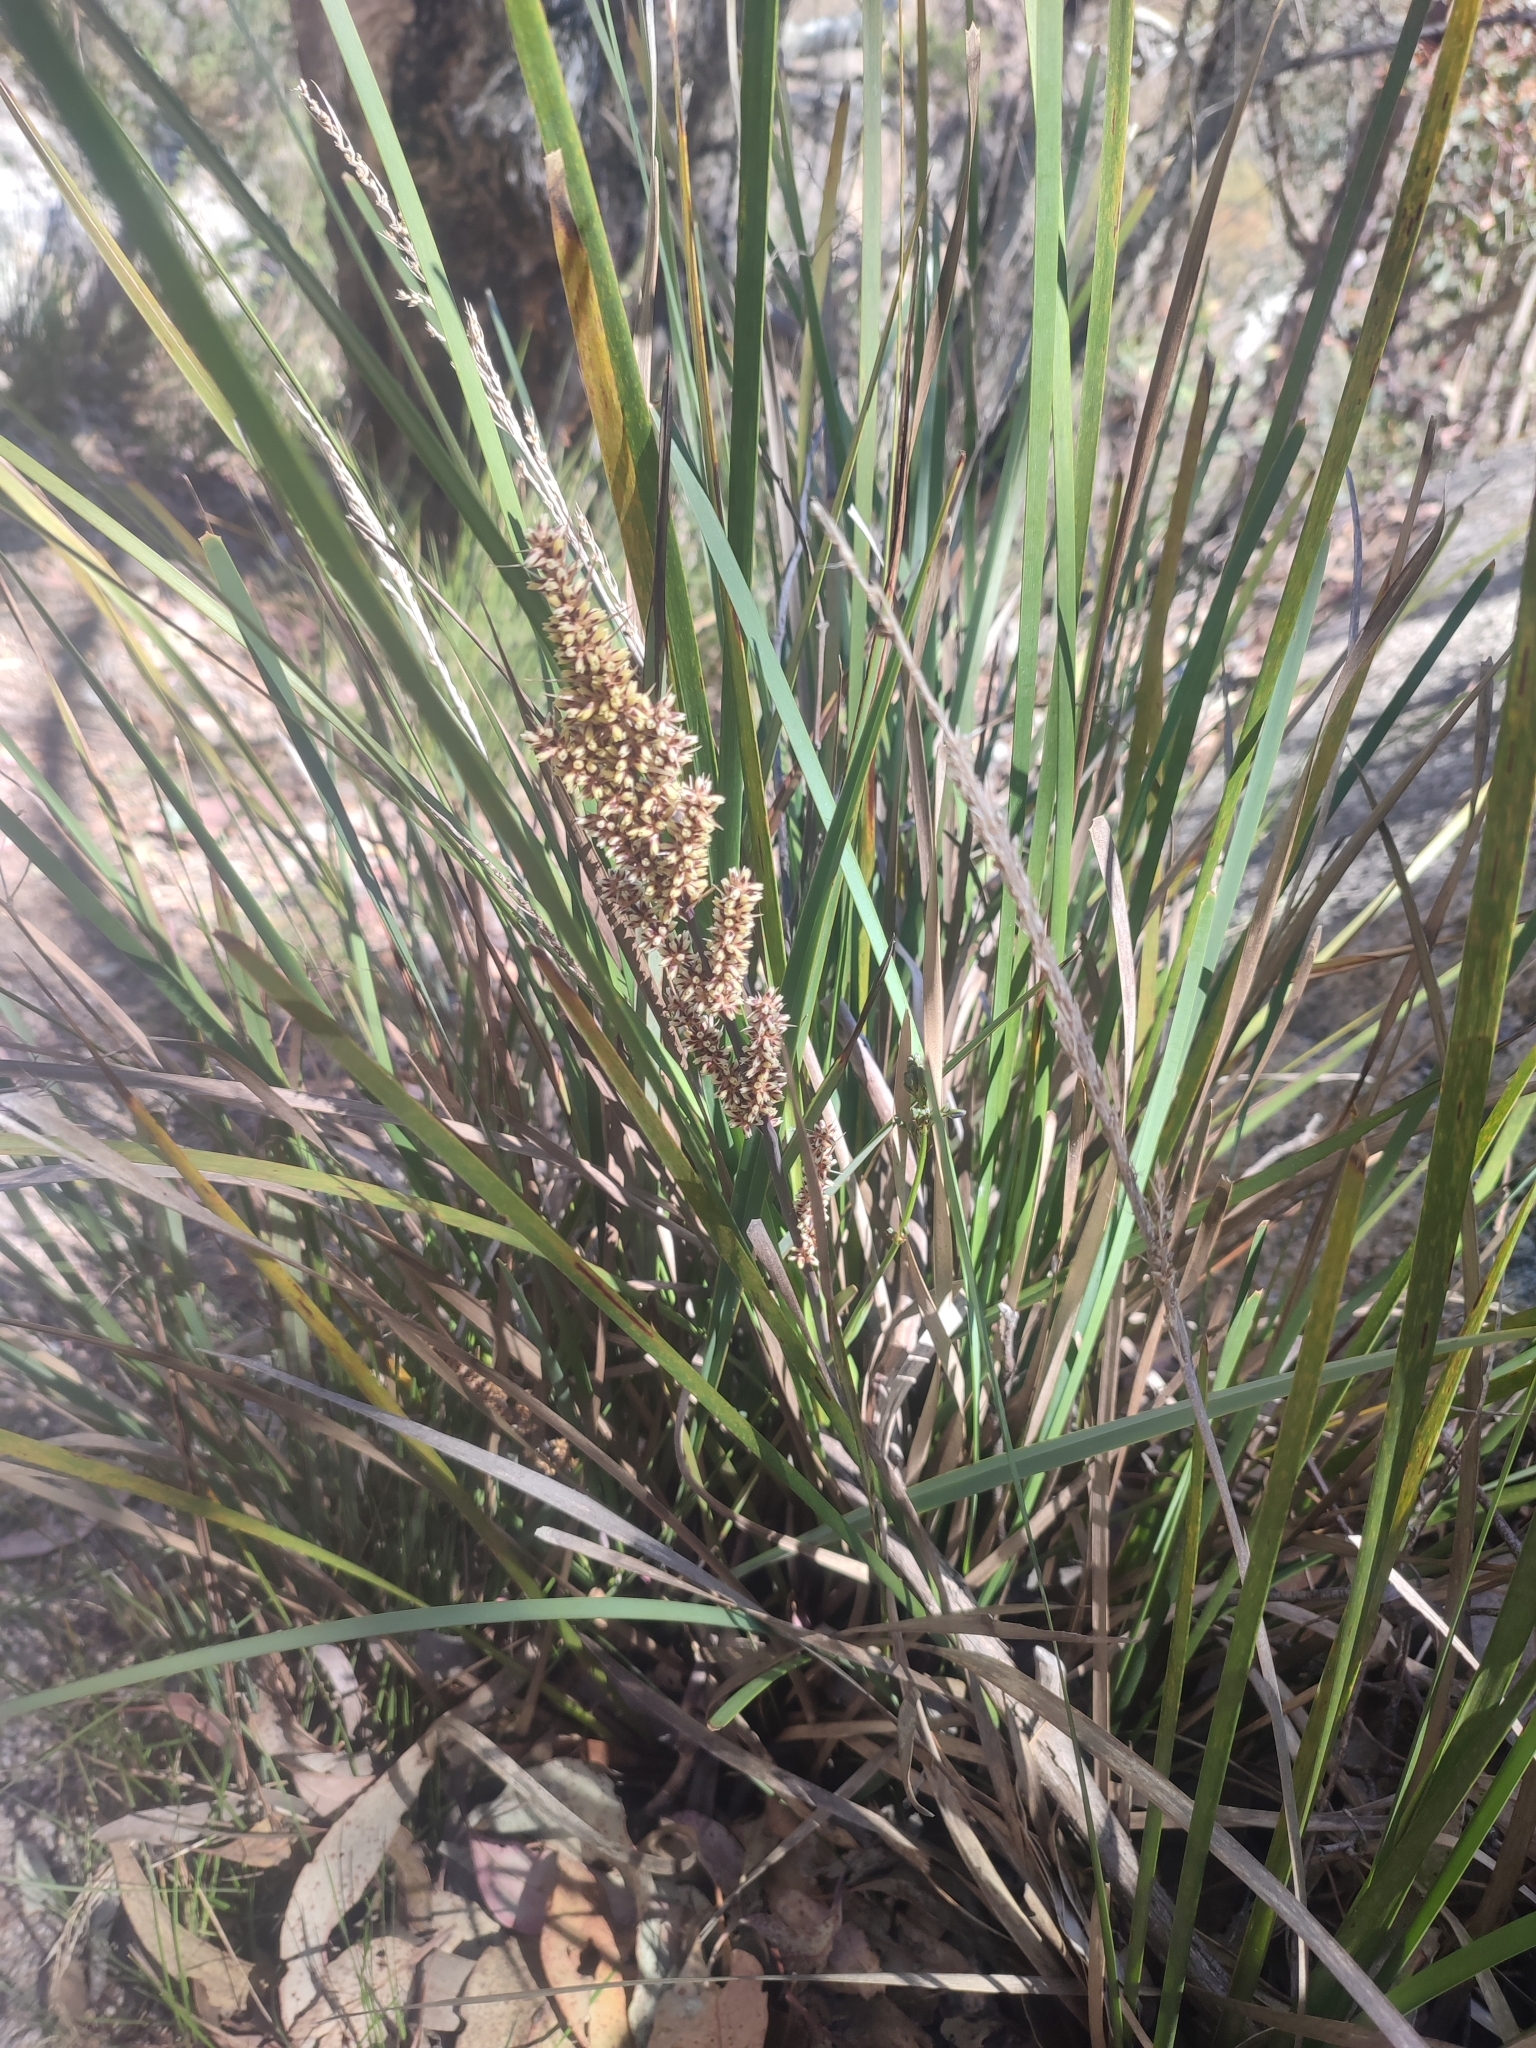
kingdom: Plantae
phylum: Tracheophyta
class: Liliopsida
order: Asparagales
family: Asparagaceae
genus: Lomandra
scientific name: Lomandra longifolia
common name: Longleaf mat-rush
